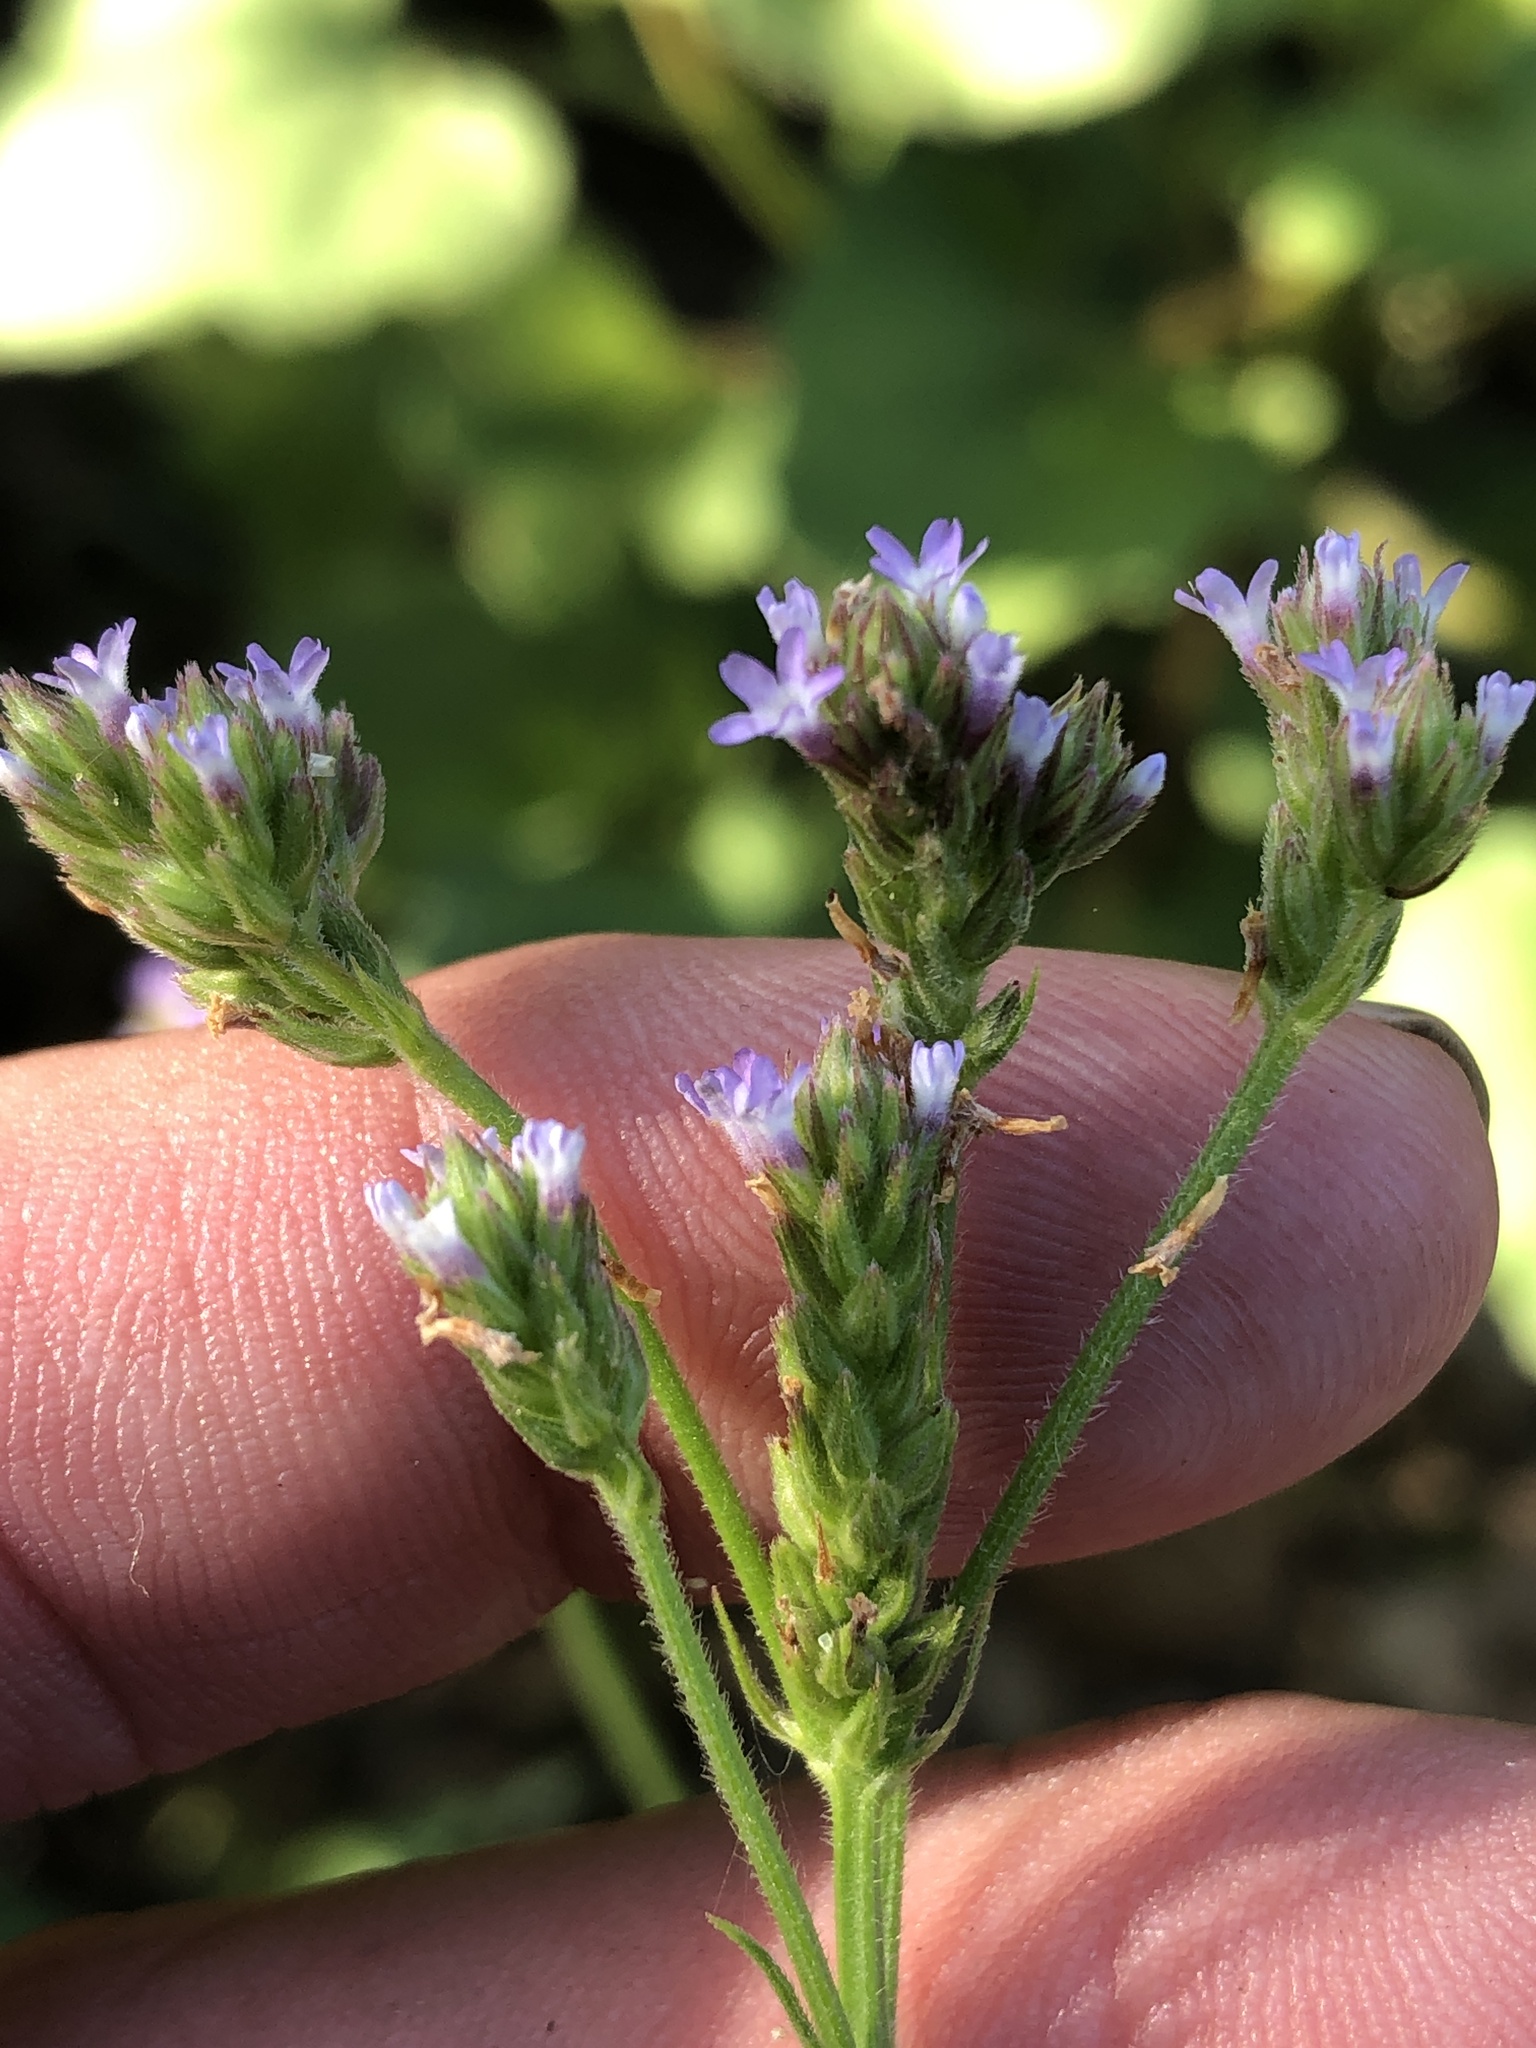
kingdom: Plantae
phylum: Tracheophyta
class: Magnoliopsida
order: Lamiales
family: Verbenaceae
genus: Verbena
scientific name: Verbena brasiliensis
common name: Brazilian vervain
